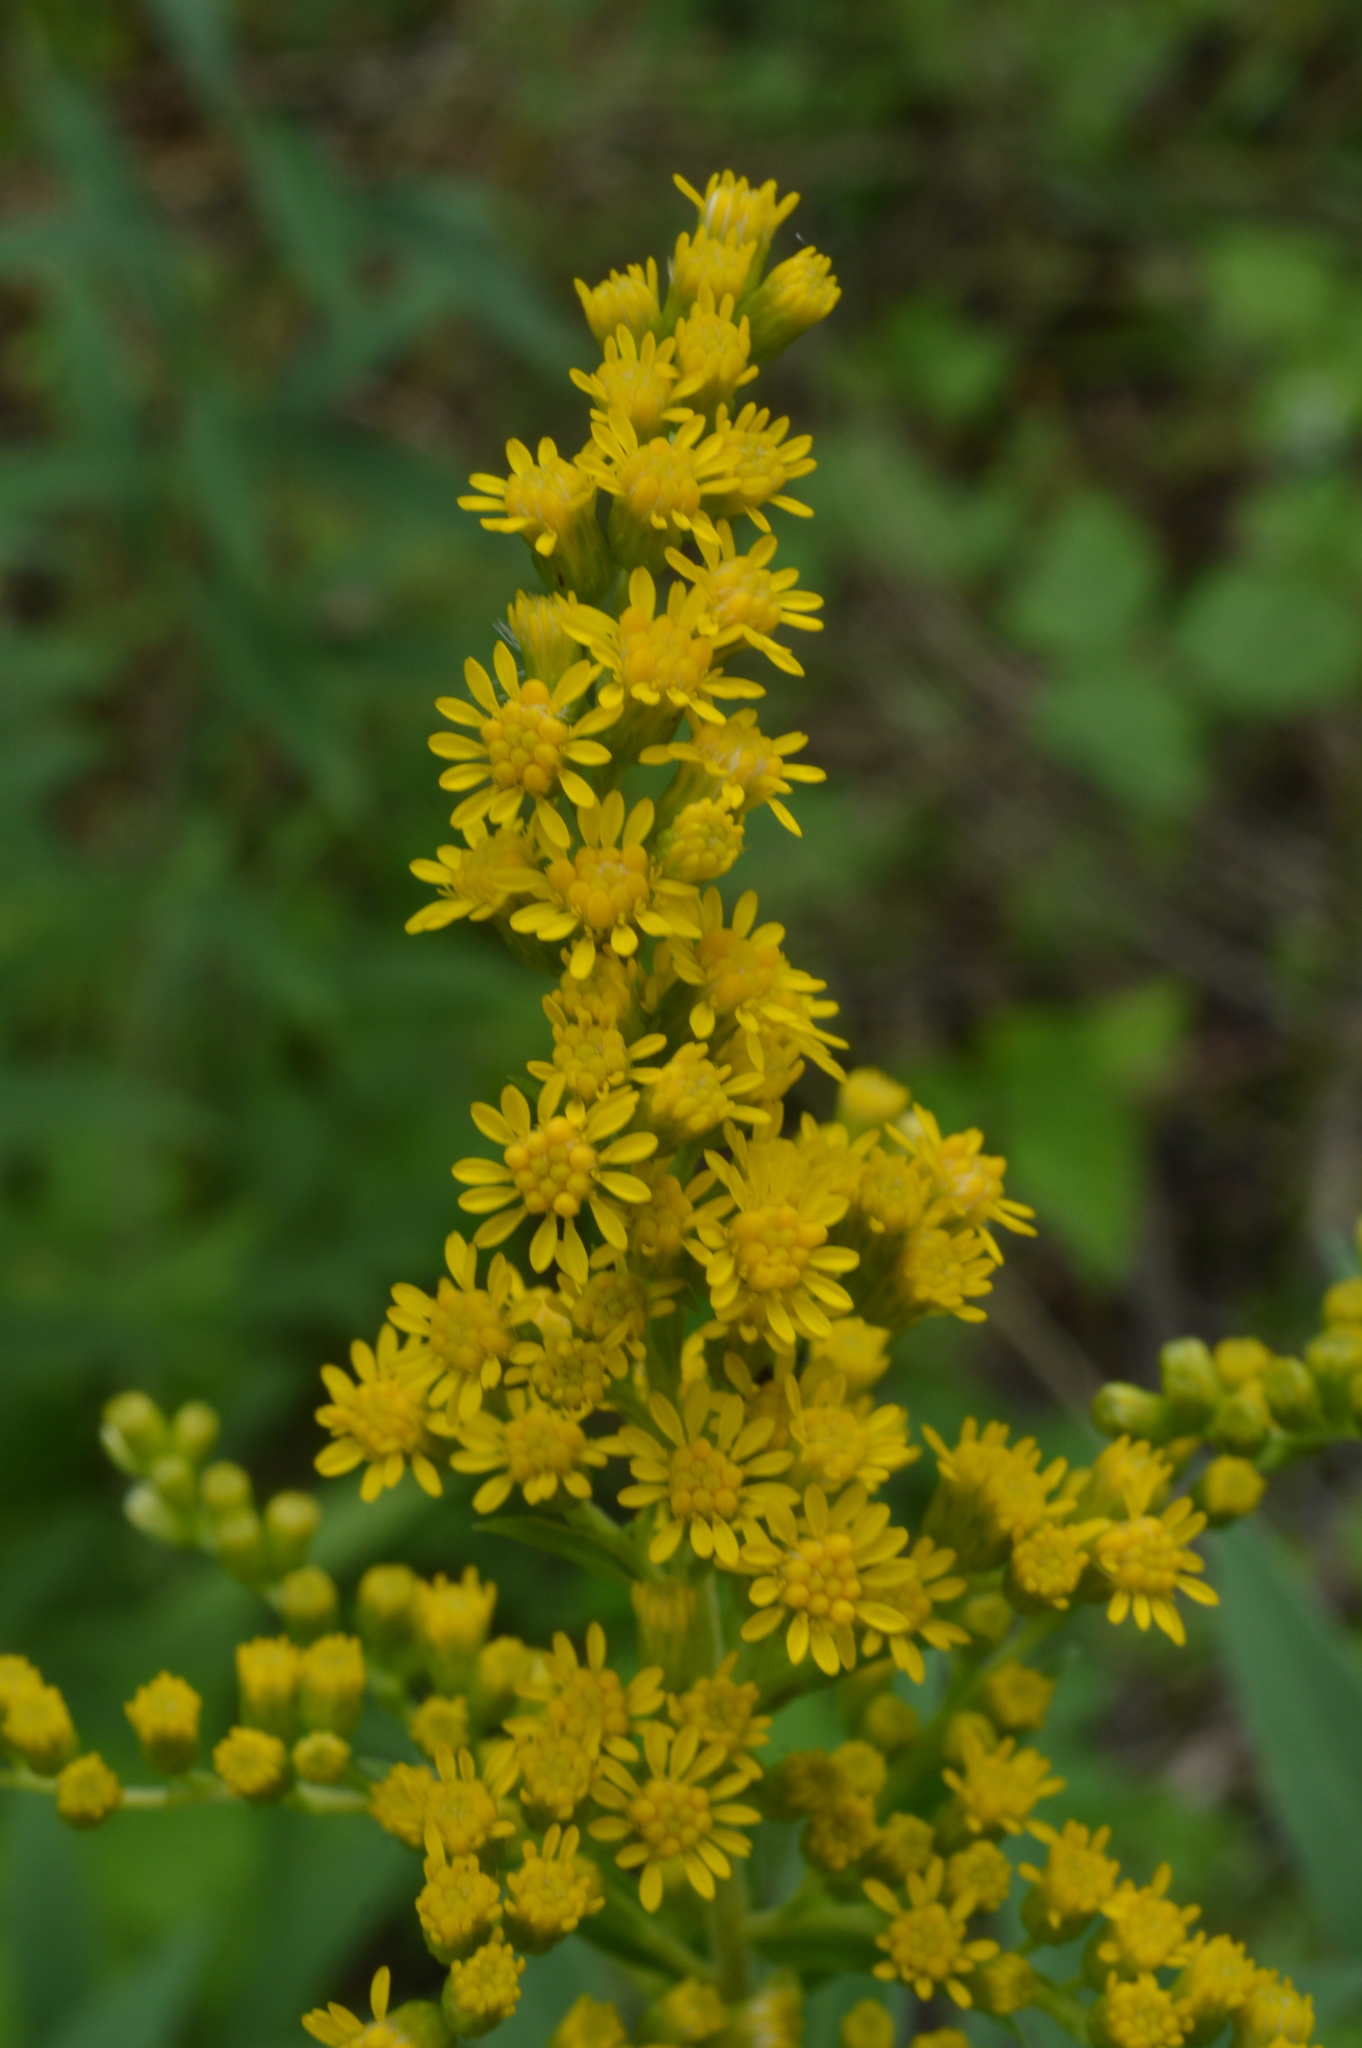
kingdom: Plantae
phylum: Tracheophyta
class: Magnoliopsida
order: Asterales
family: Asteraceae
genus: Solidago
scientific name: Solidago gigantea
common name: Giant goldenrod
